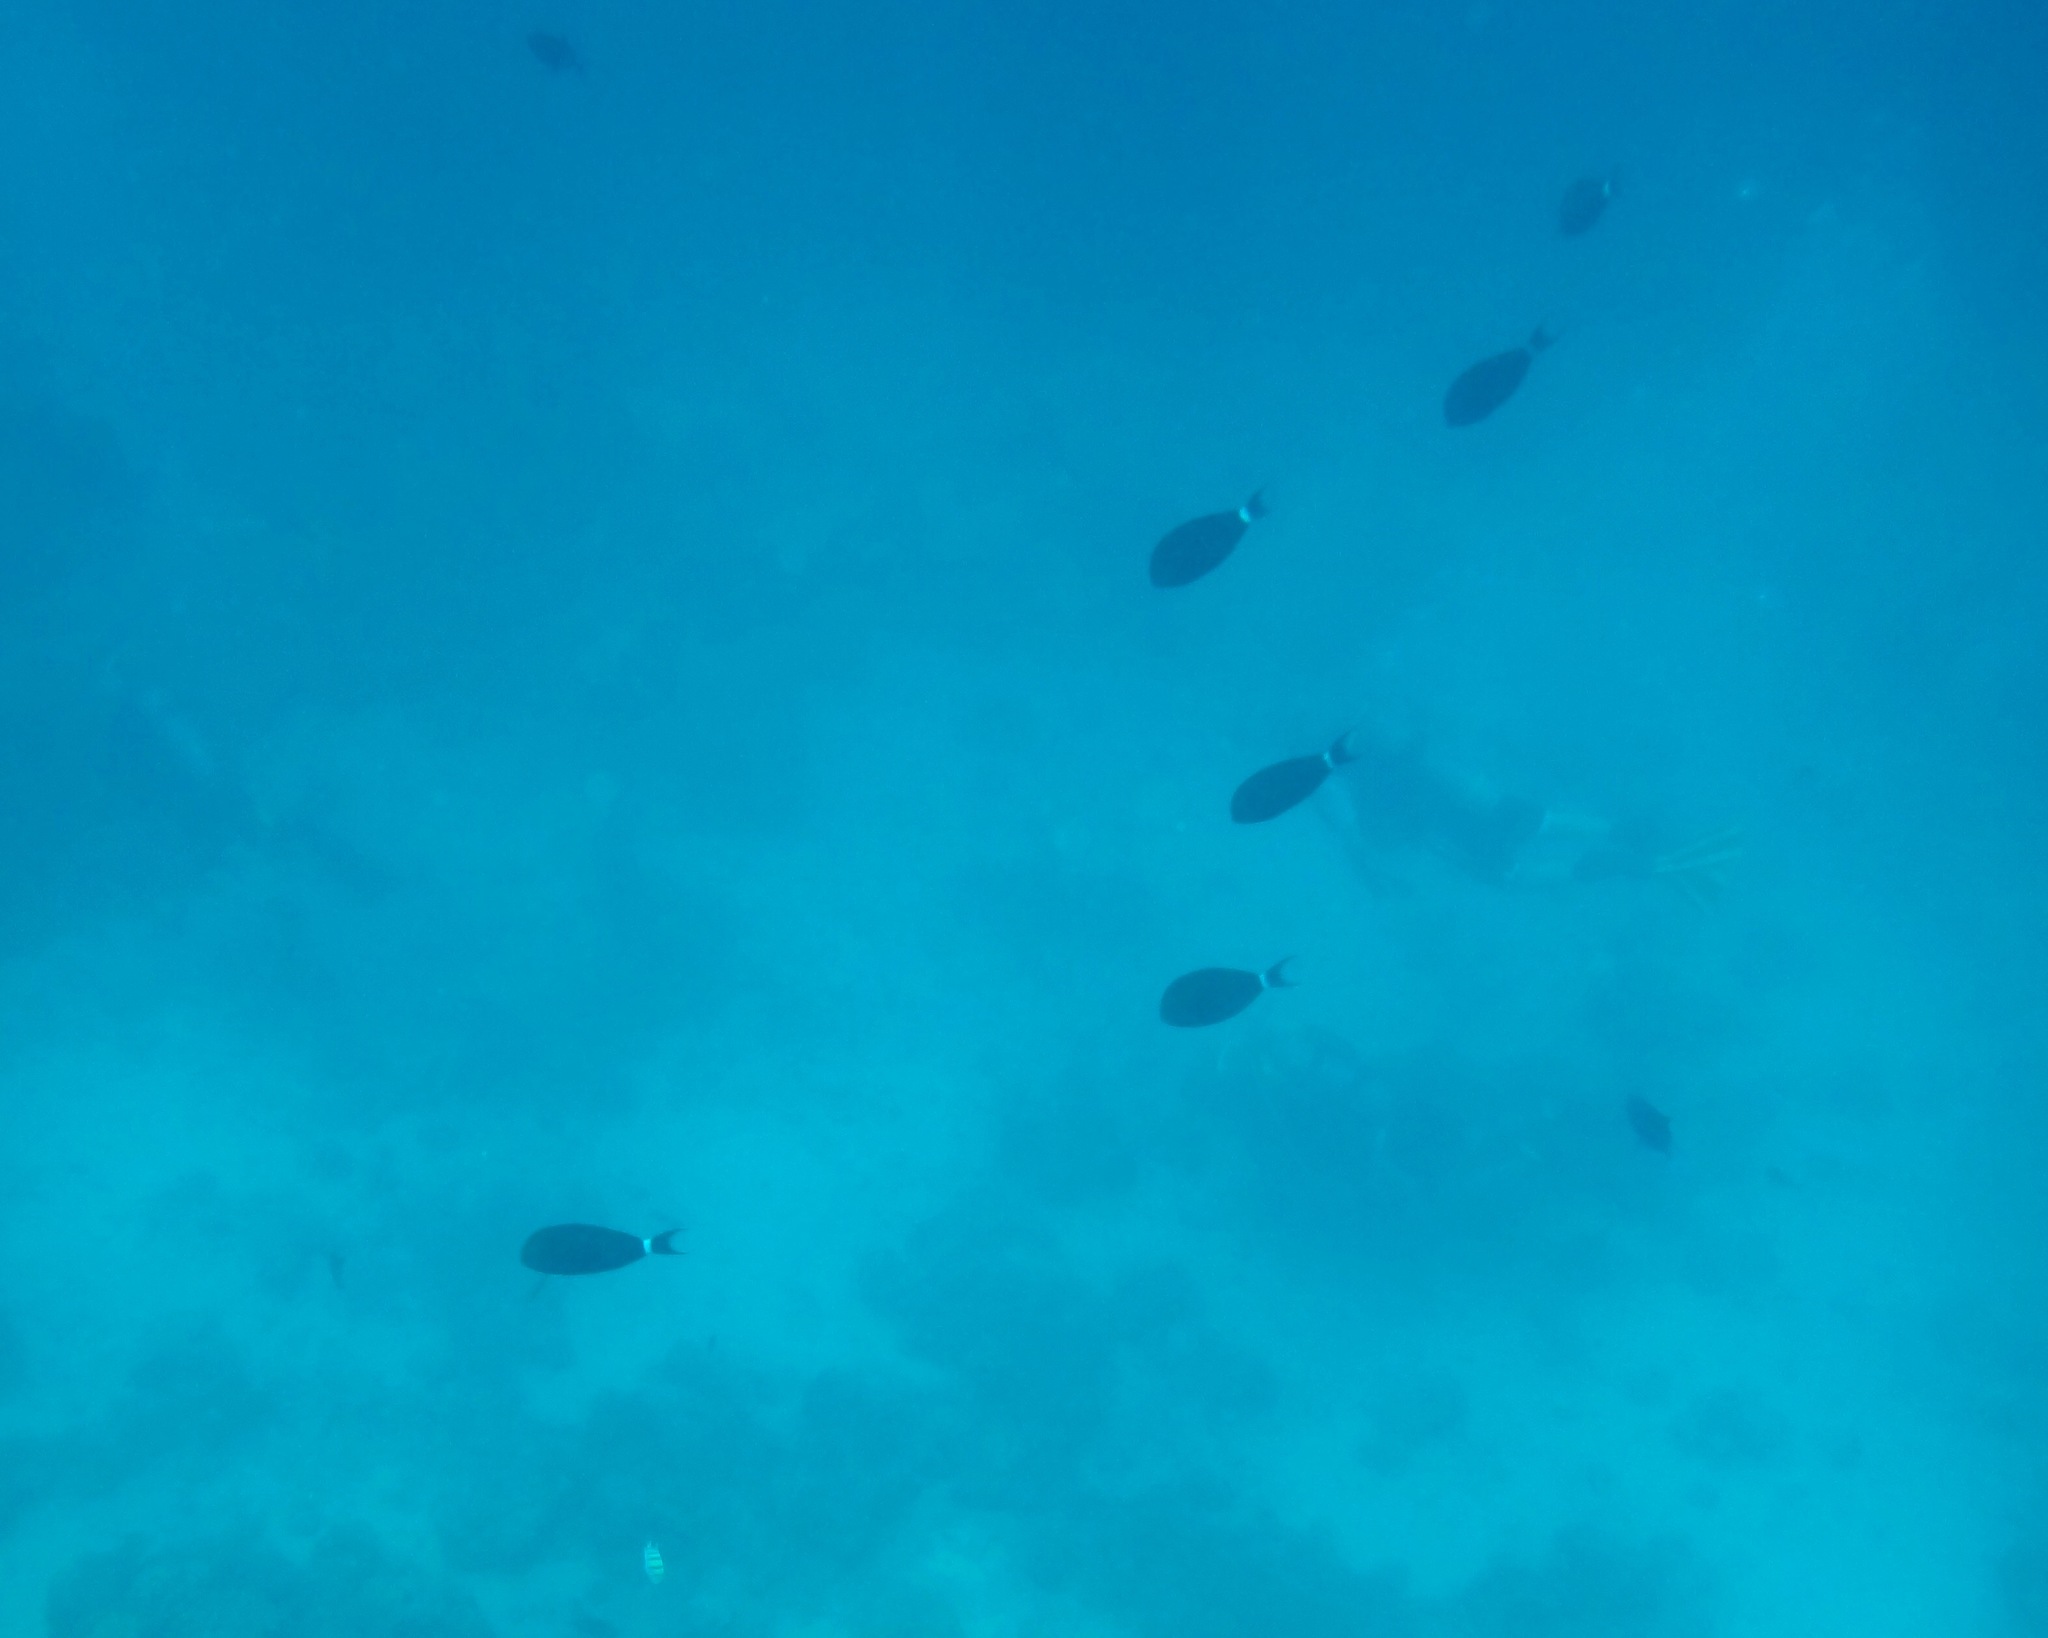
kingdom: Animalia
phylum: Chordata
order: Perciformes
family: Acanthuridae
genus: Acanthurus
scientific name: Acanthurus gahhm
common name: Black surgeonfish
